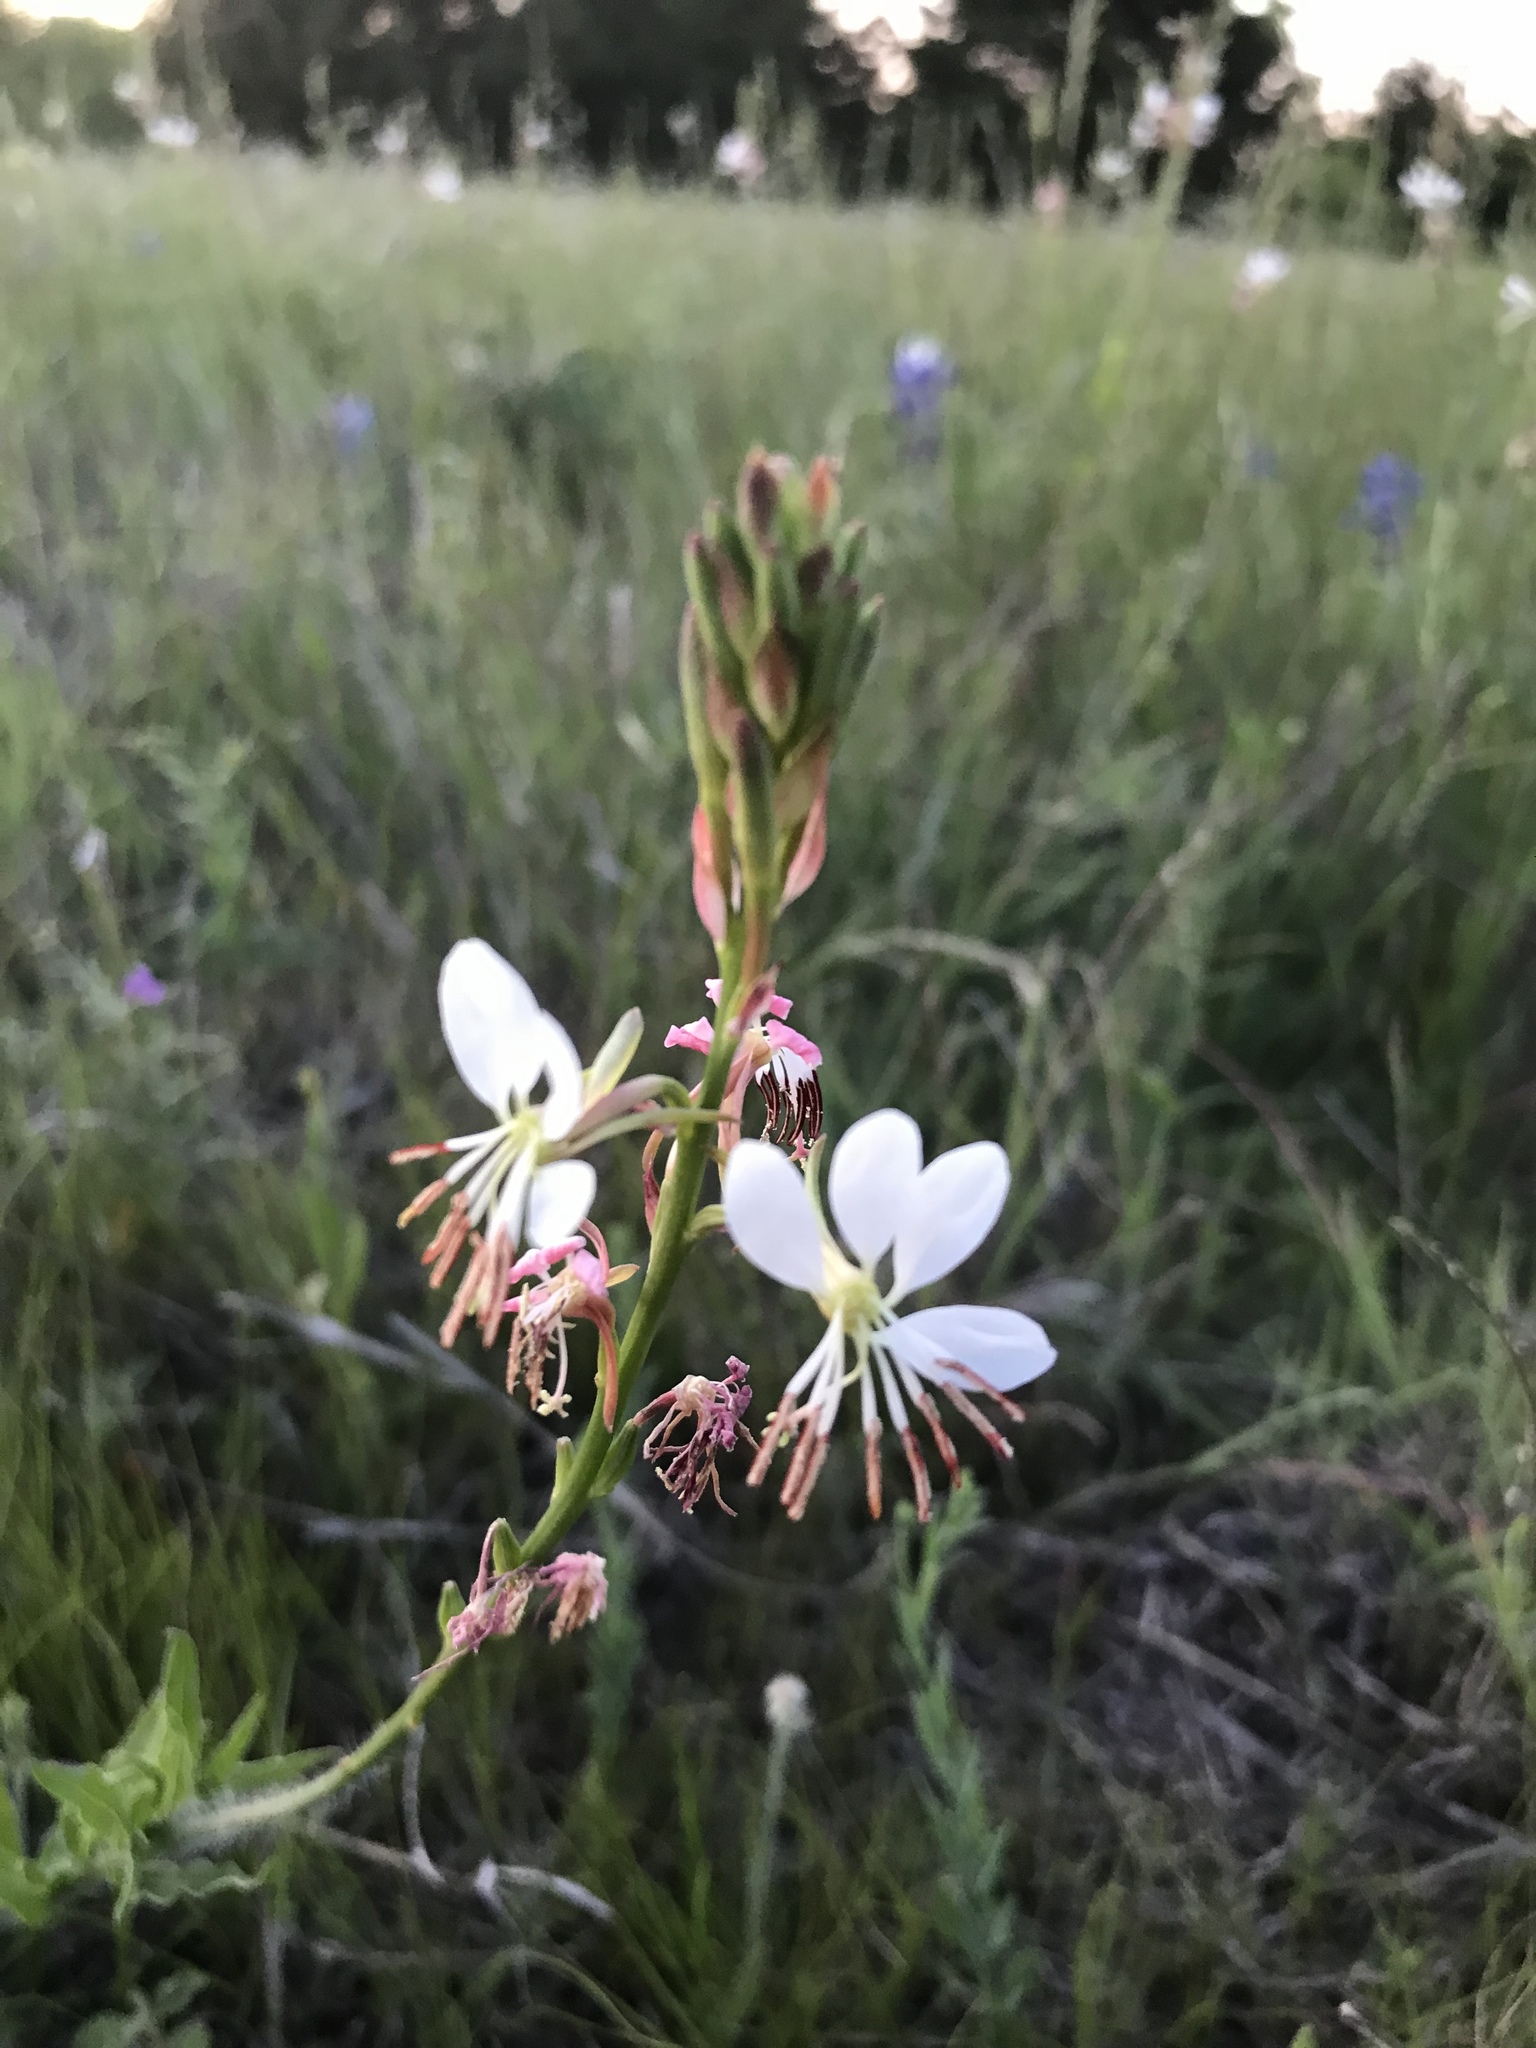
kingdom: Plantae
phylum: Tracheophyta
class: Magnoliopsida
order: Myrtales
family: Onagraceae
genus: Oenothera
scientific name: Oenothera suffulta
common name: Kisses
